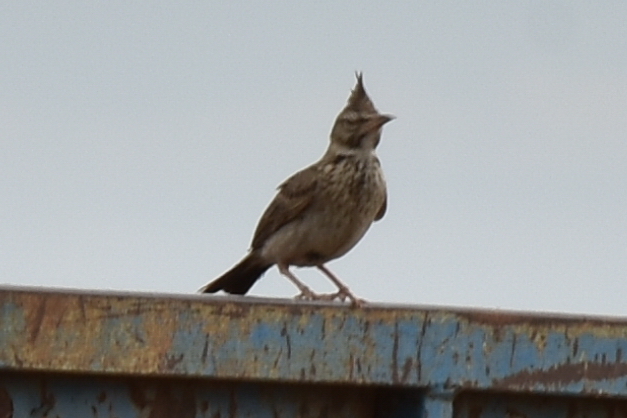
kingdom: Animalia
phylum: Chordata
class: Aves
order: Passeriformes
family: Alaudidae
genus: Galerida
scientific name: Galerida cristata
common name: Crested lark
